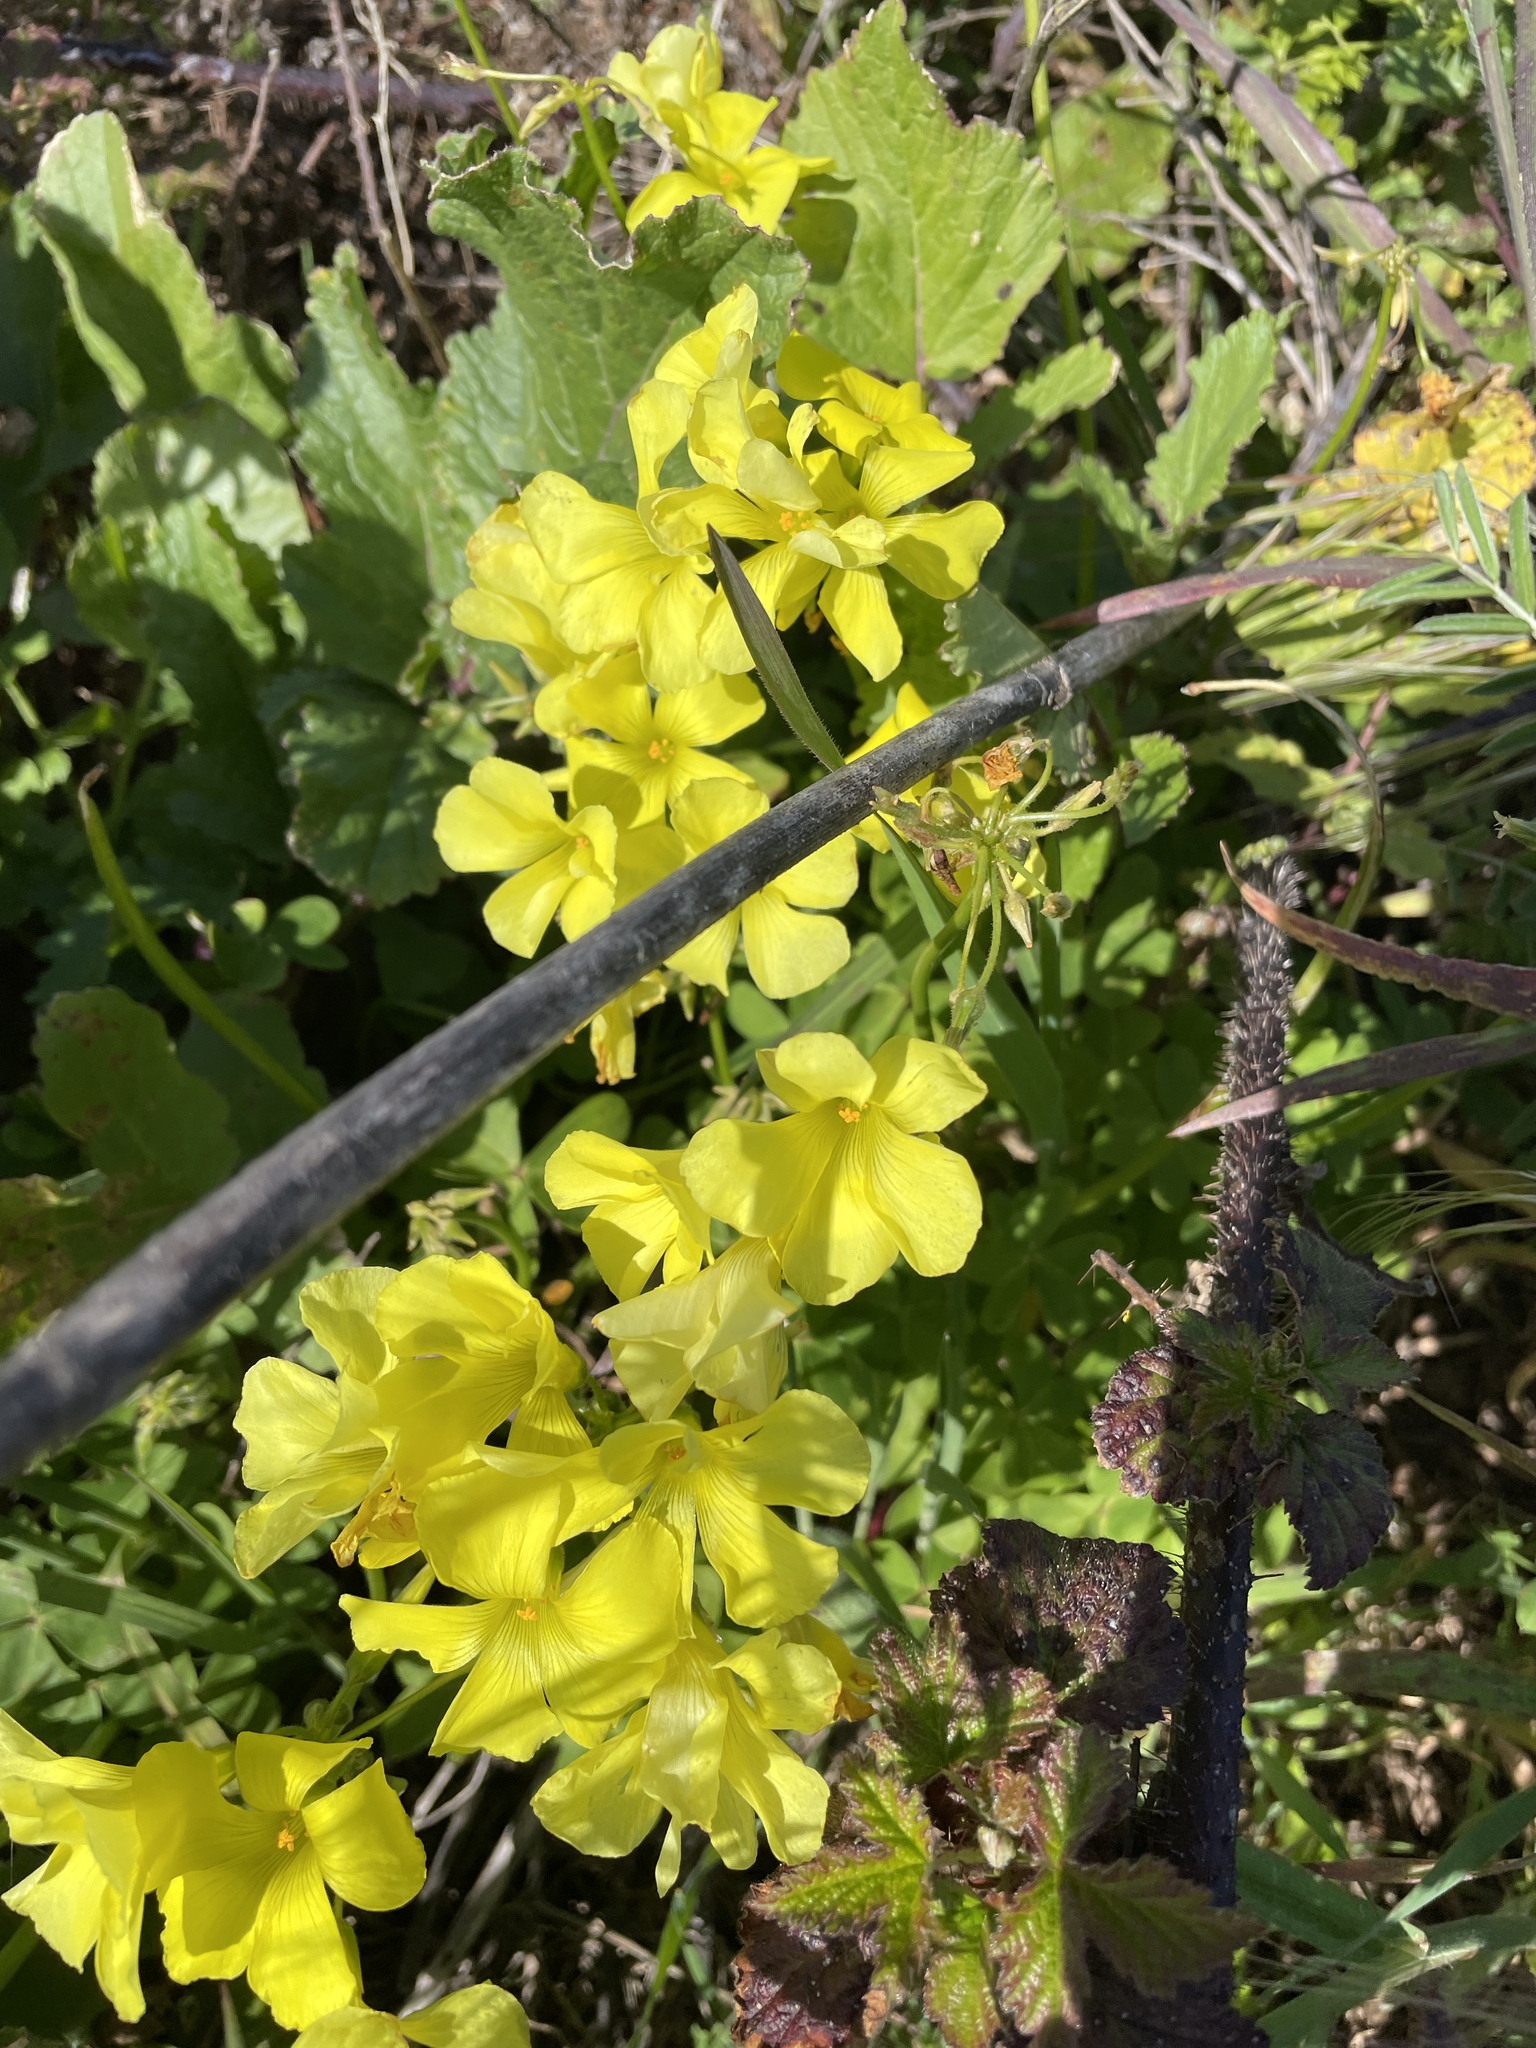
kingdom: Plantae
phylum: Tracheophyta
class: Magnoliopsida
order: Oxalidales
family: Oxalidaceae
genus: Oxalis
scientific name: Oxalis pes-caprae
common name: Bermuda-buttercup
